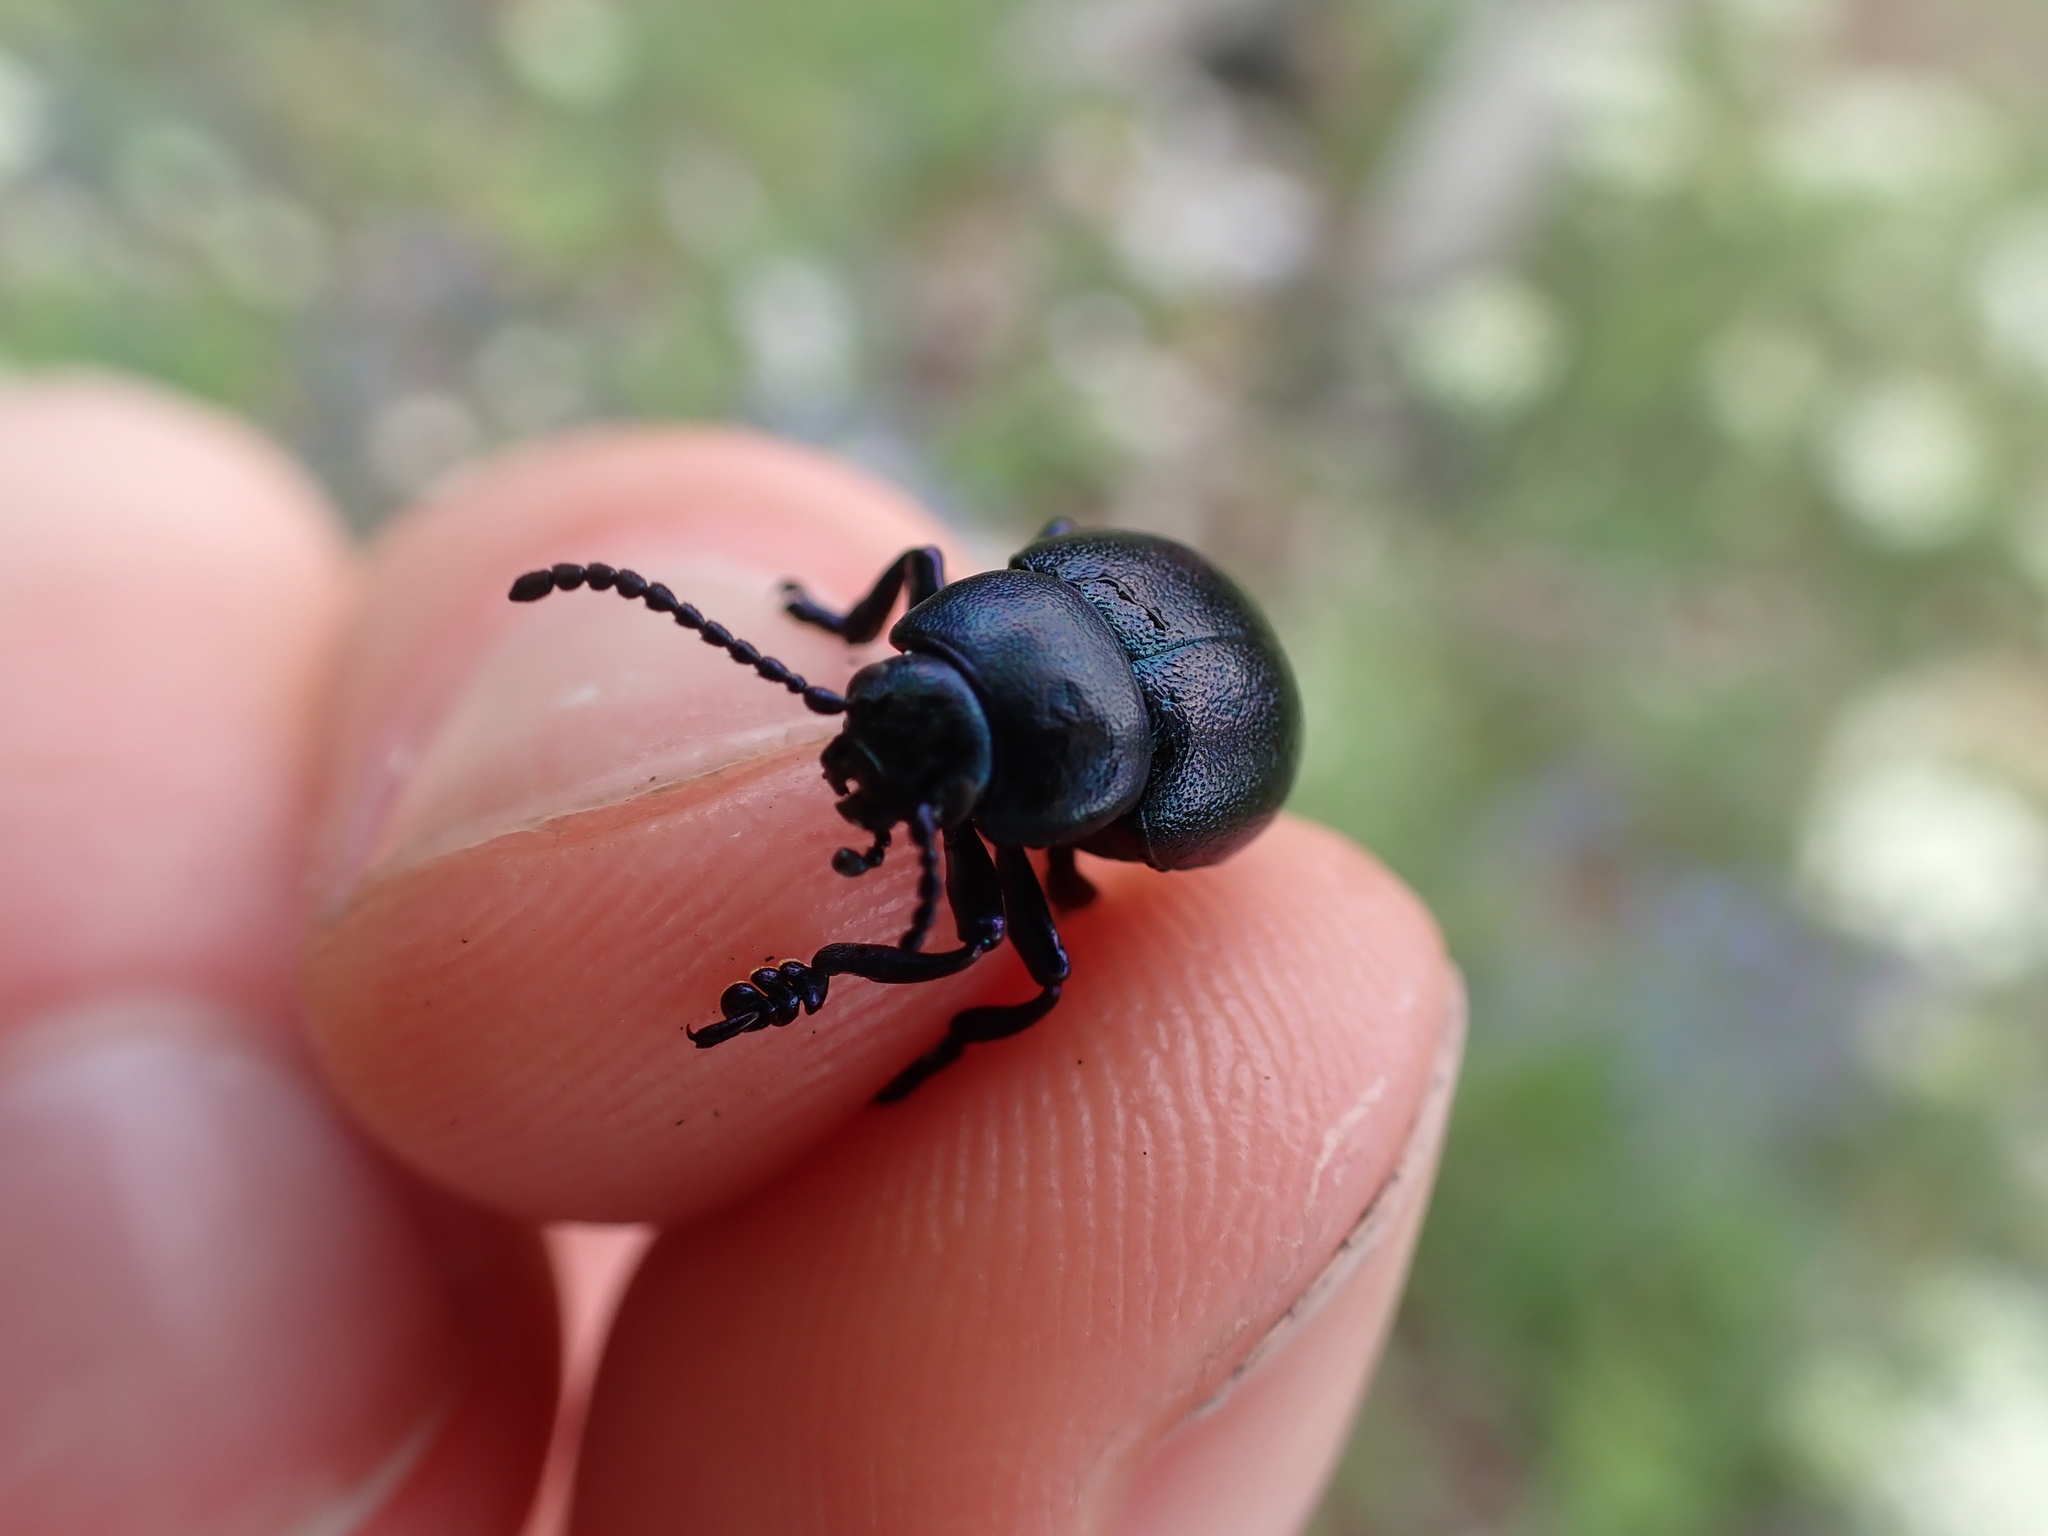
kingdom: Animalia
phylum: Arthropoda
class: Insecta
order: Coleoptera
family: Chrysomelidae
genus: Timarcha
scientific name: Timarcha goettingensis
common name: Small bloody-nosed beetle
